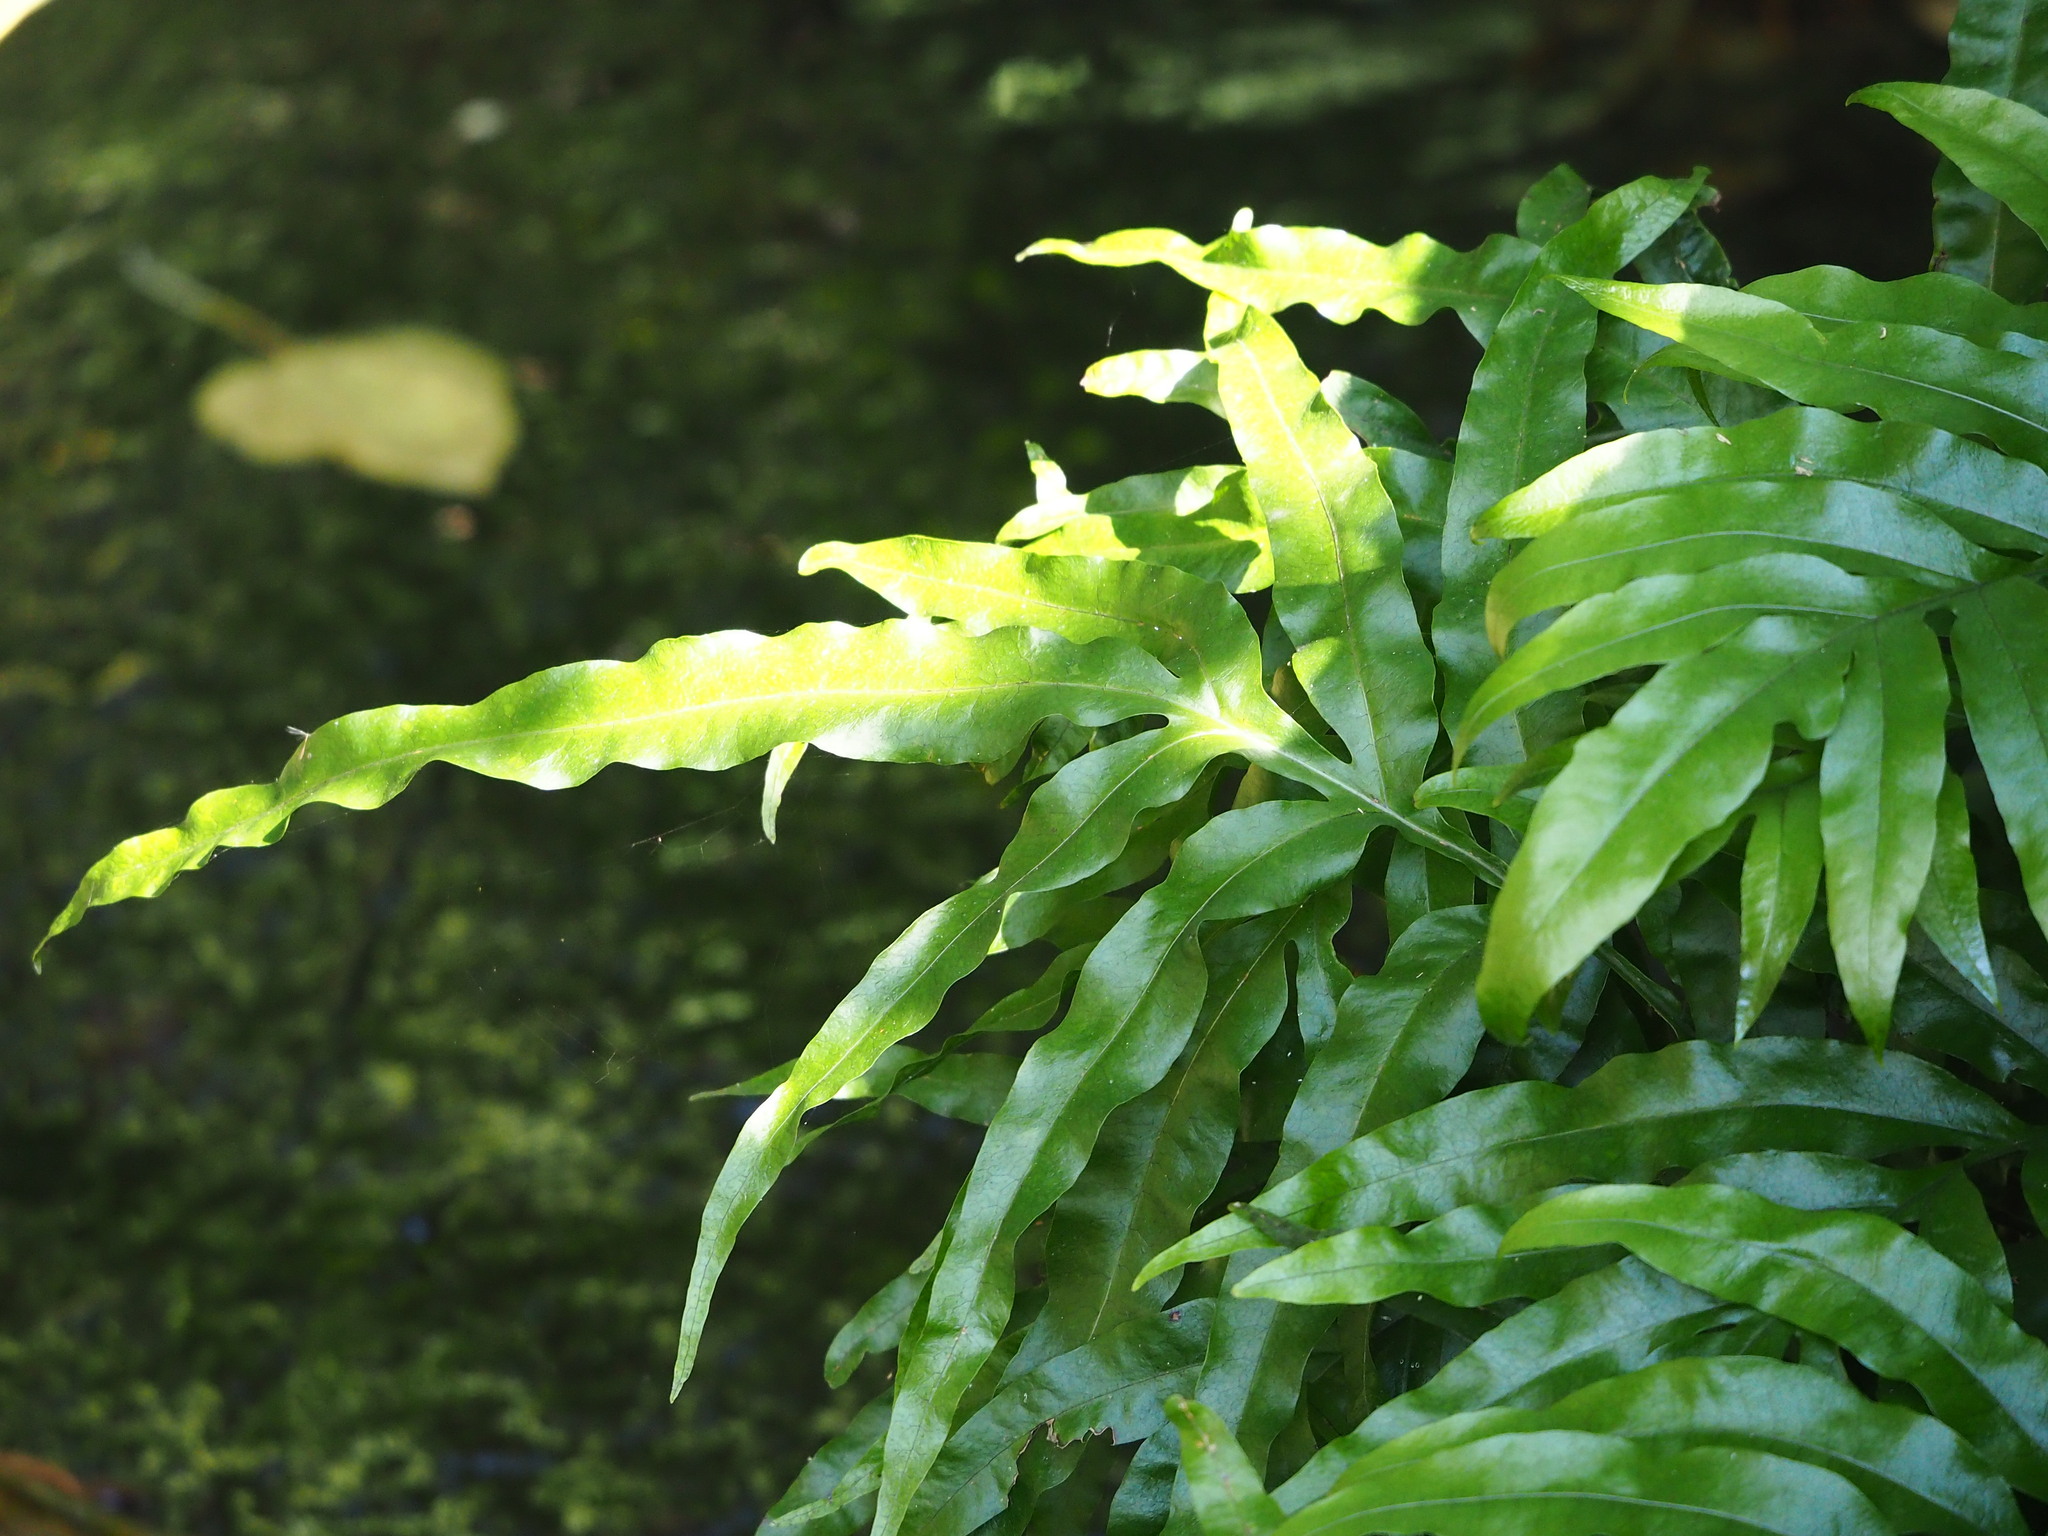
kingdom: Plantae
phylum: Tracheophyta
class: Polypodiopsida
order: Polypodiales
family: Polypodiaceae
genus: Leptochilus
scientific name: Leptochilus ellipticus
